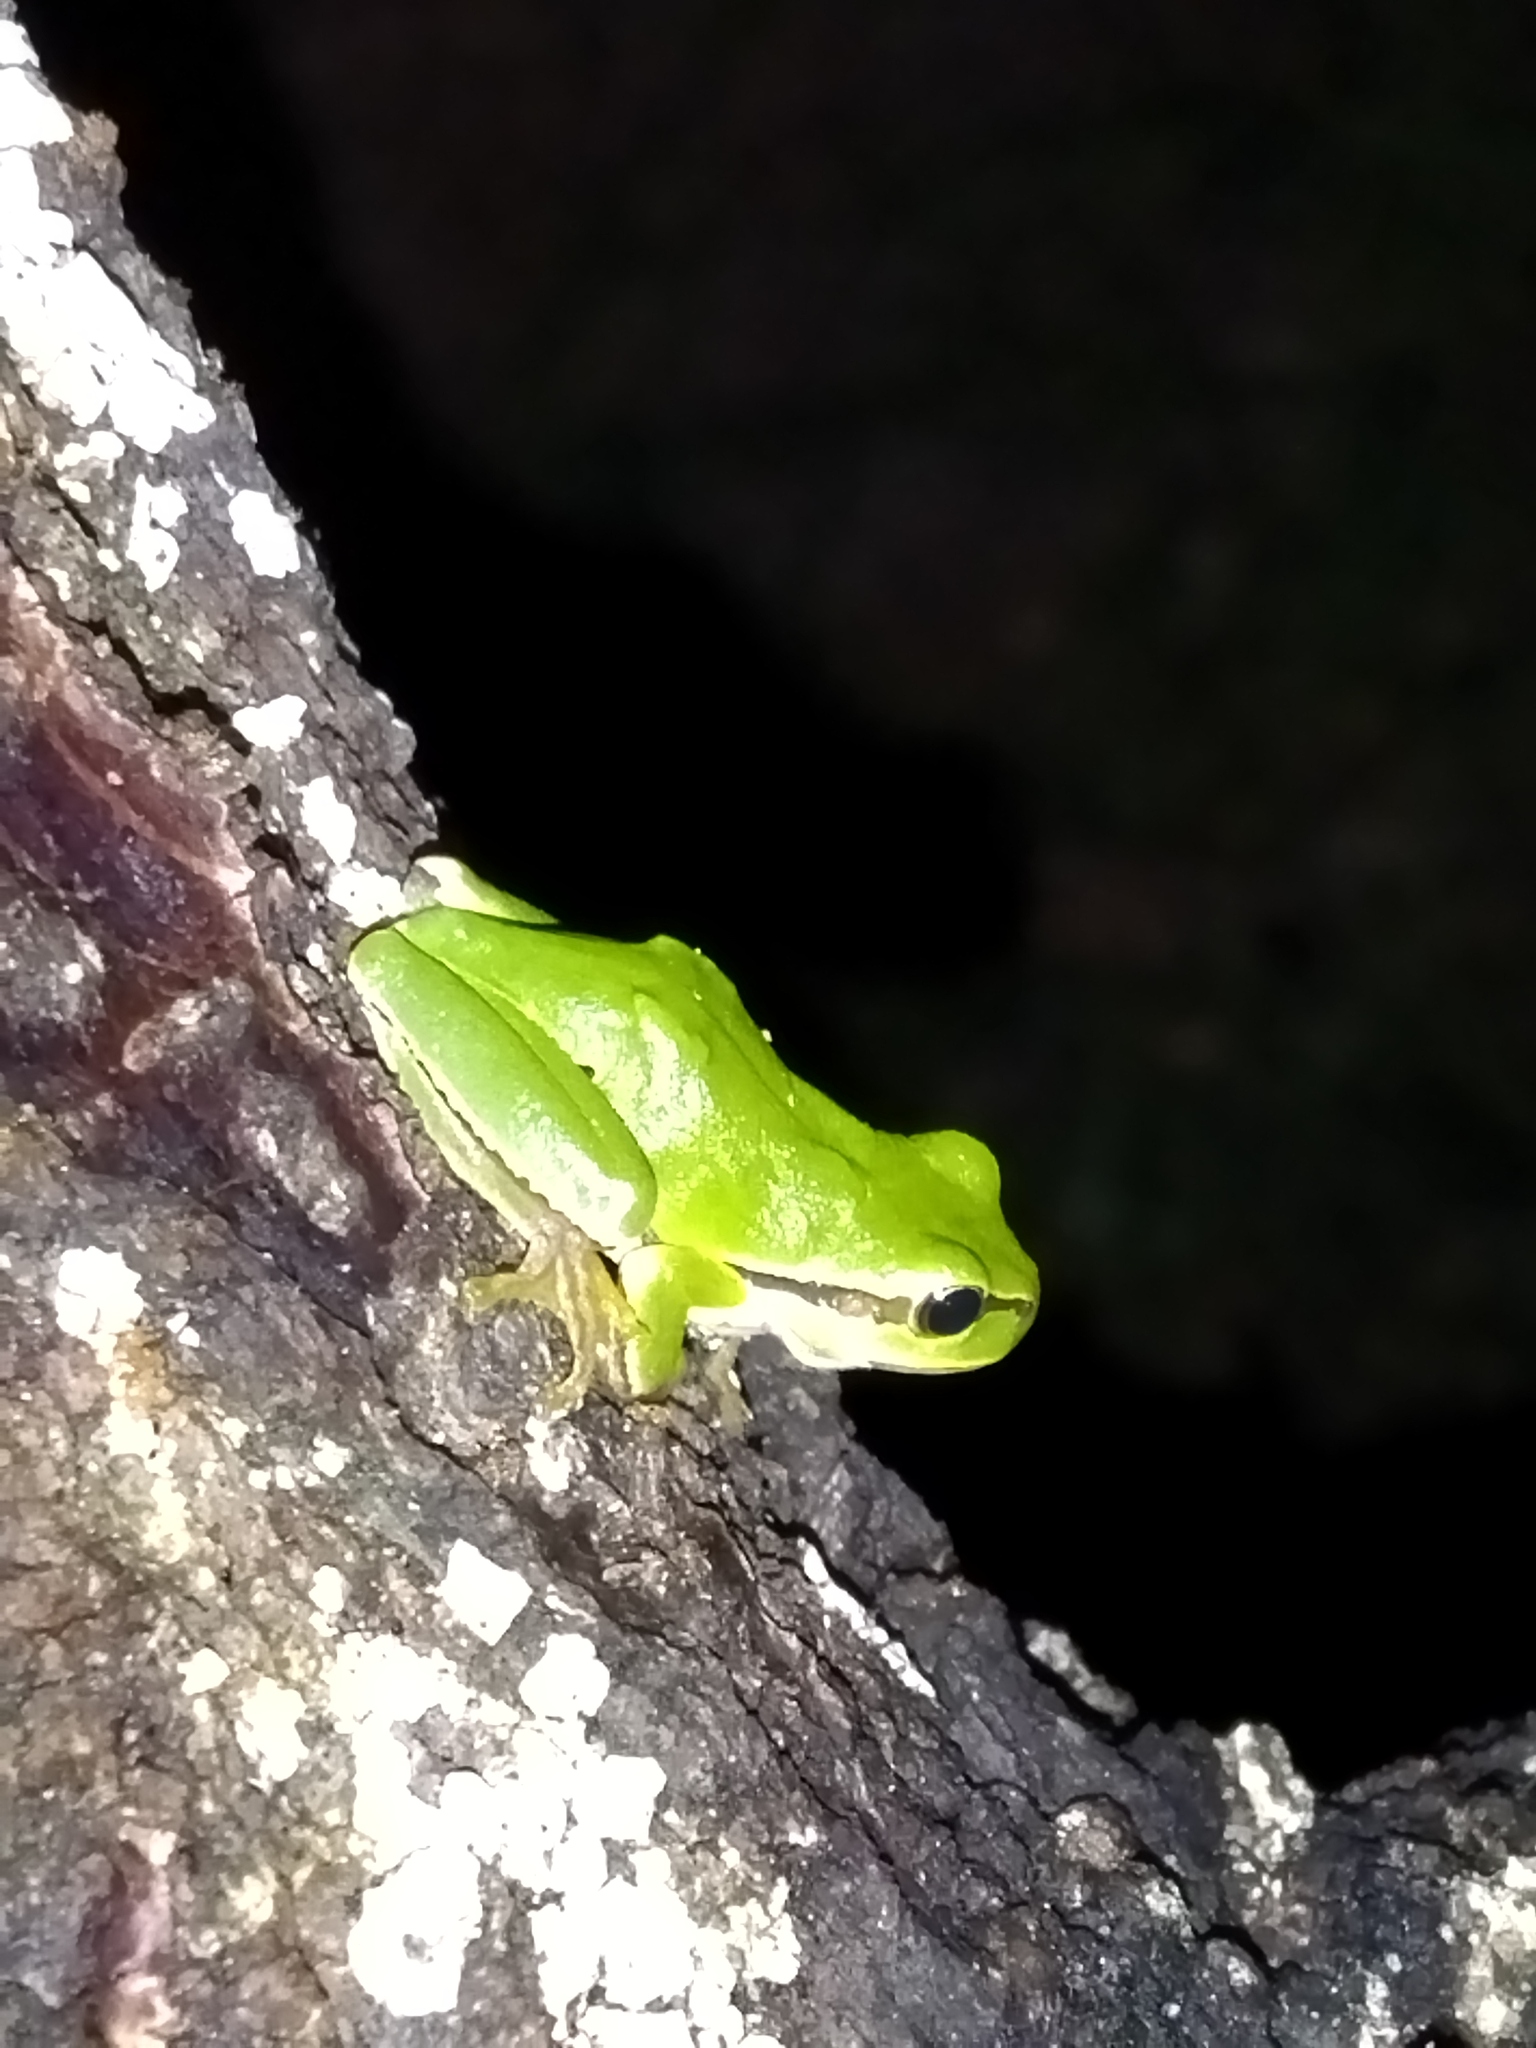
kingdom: Animalia
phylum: Chordata
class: Amphibia
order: Anura
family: Hylidae
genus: Hyla
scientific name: Hyla orientalis
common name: Caucasian treefrog
